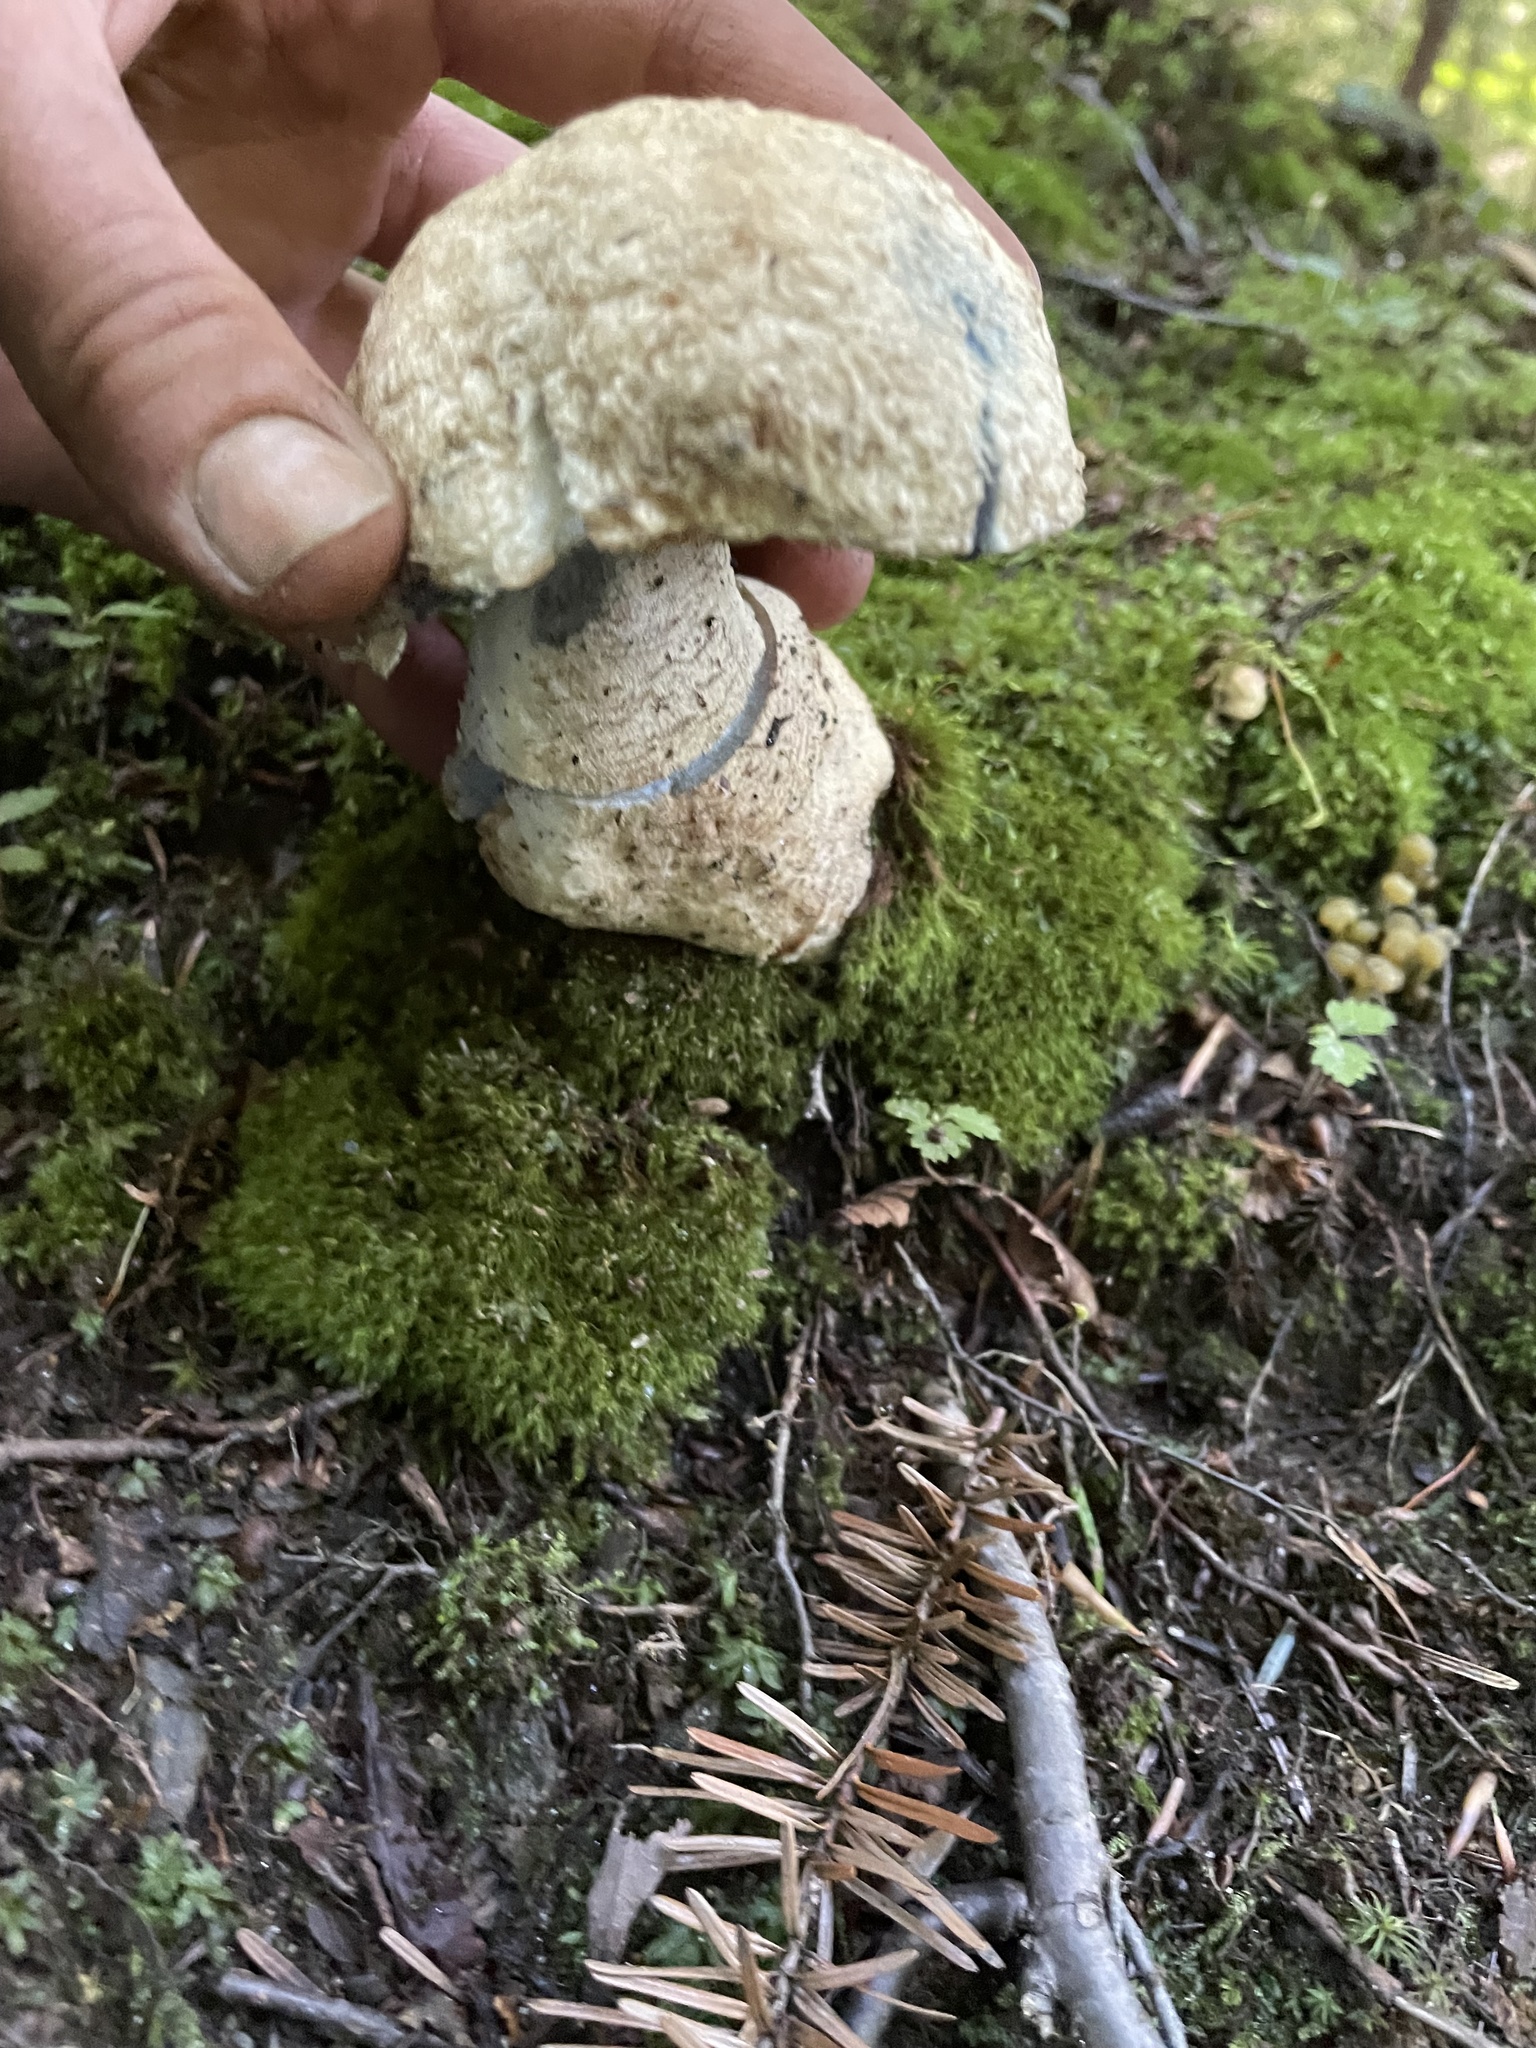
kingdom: Fungi
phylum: Basidiomycota
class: Agaricomycetes
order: Boletales
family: Gyroporaceae
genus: Gyroporus
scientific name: Gyroporus cyanescens
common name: Cornflower bolete
